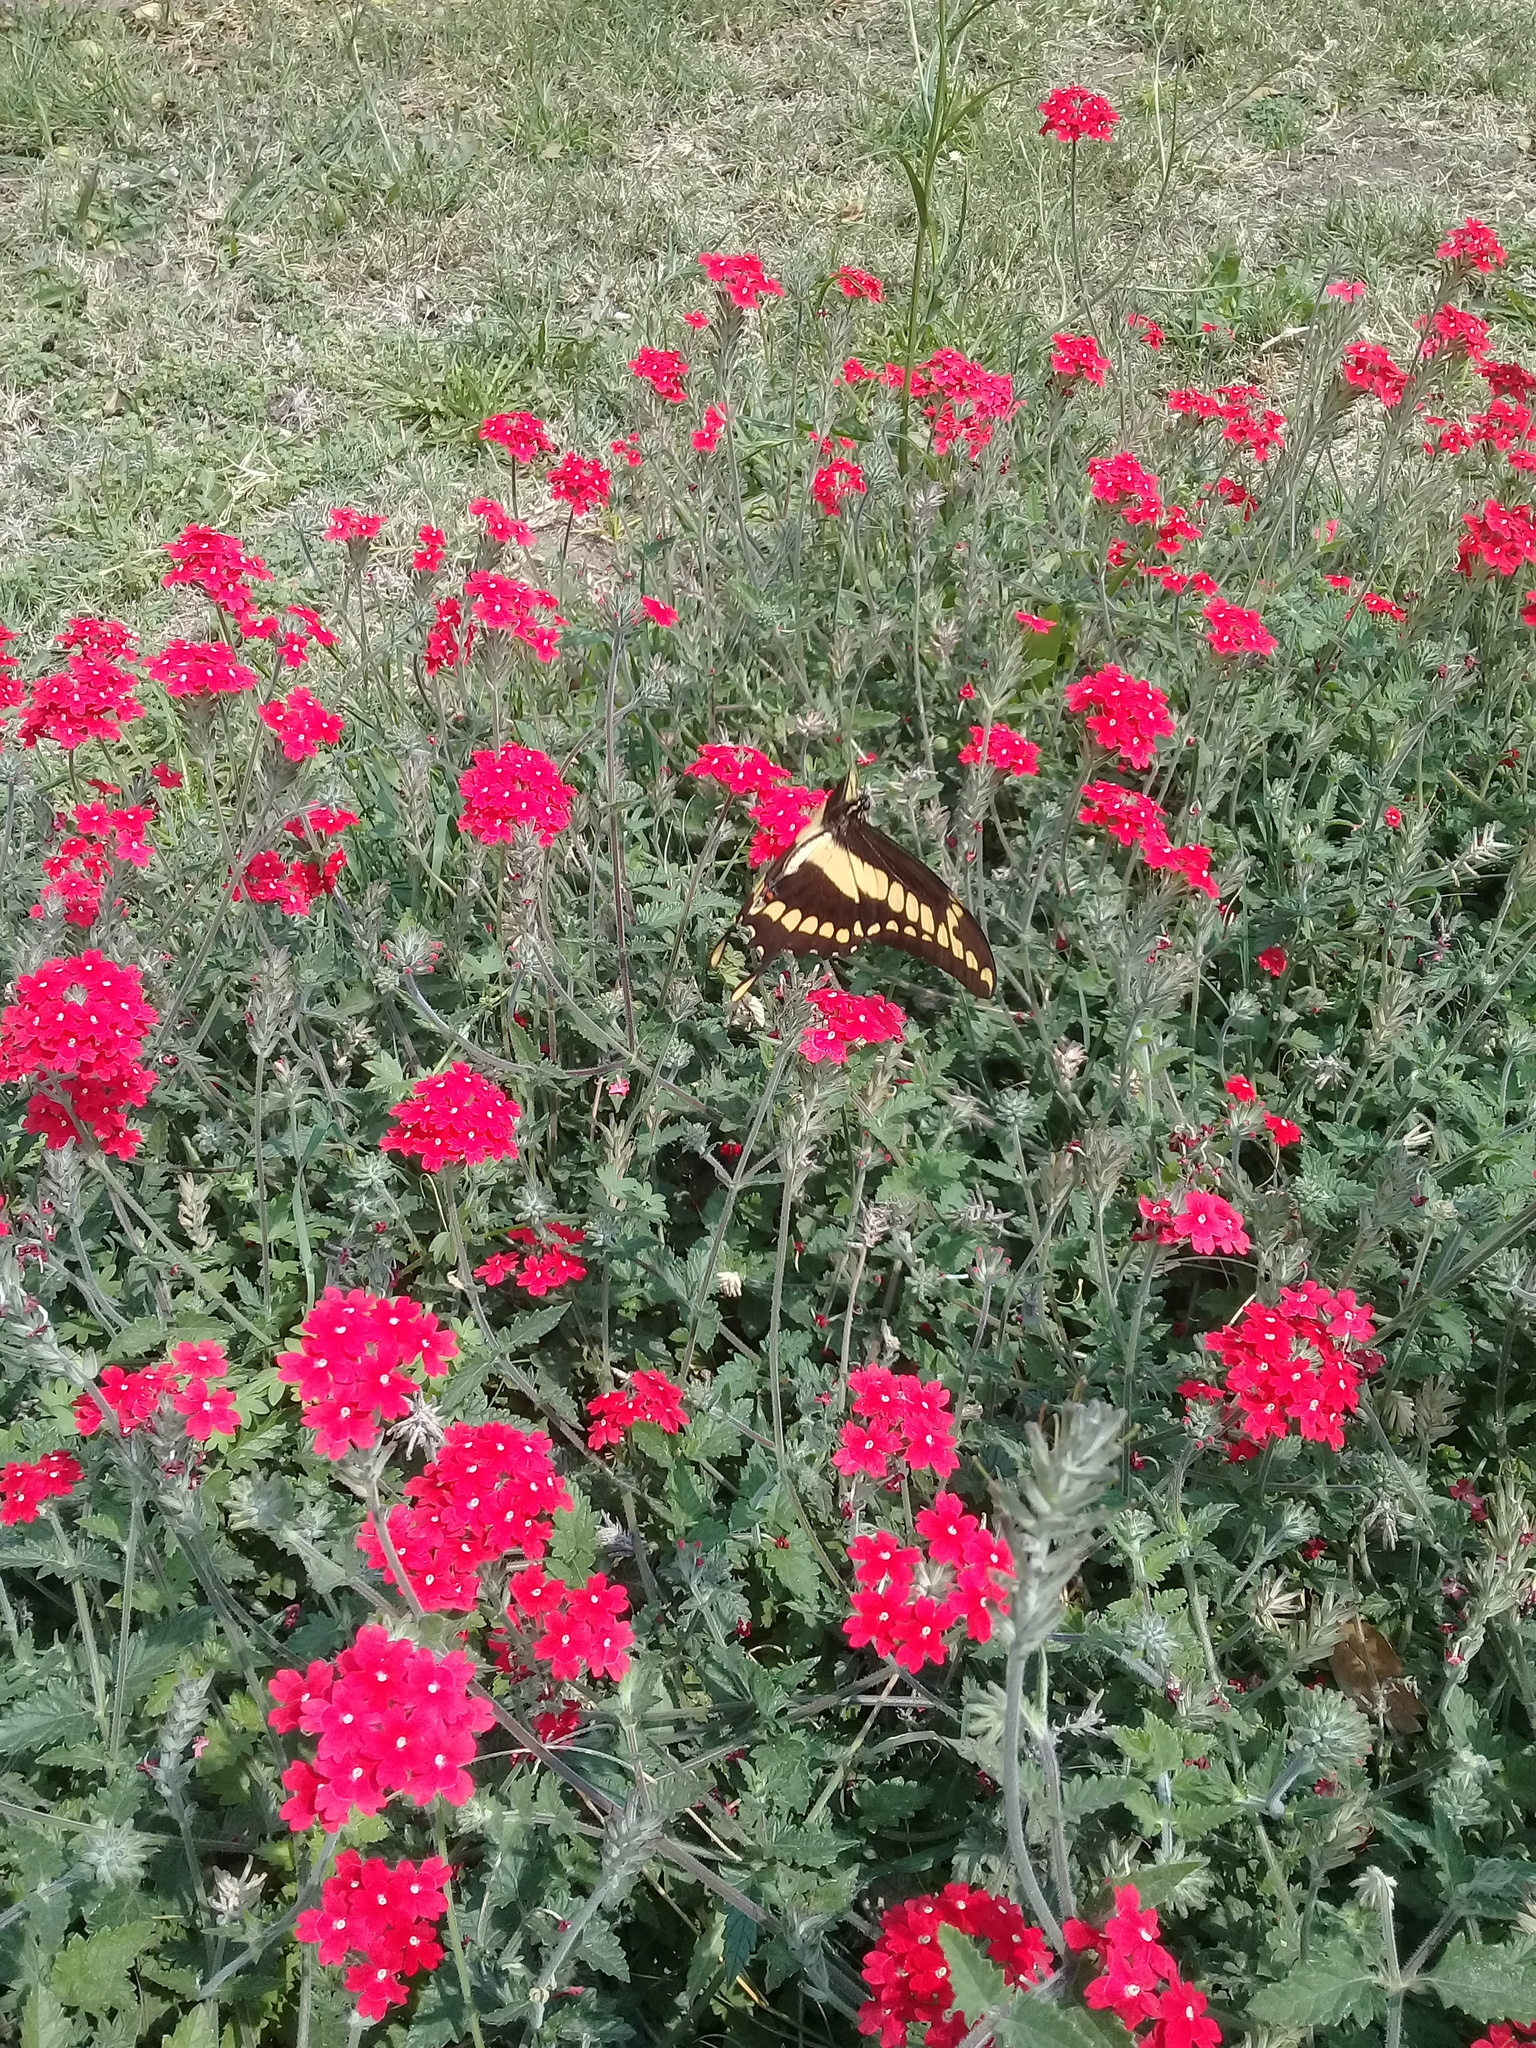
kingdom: Animalia
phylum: Arthropoda
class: Insecta
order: Lepidoptera
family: Papilionidae
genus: Papilio
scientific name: Papilio thoas
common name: King swallowtail
